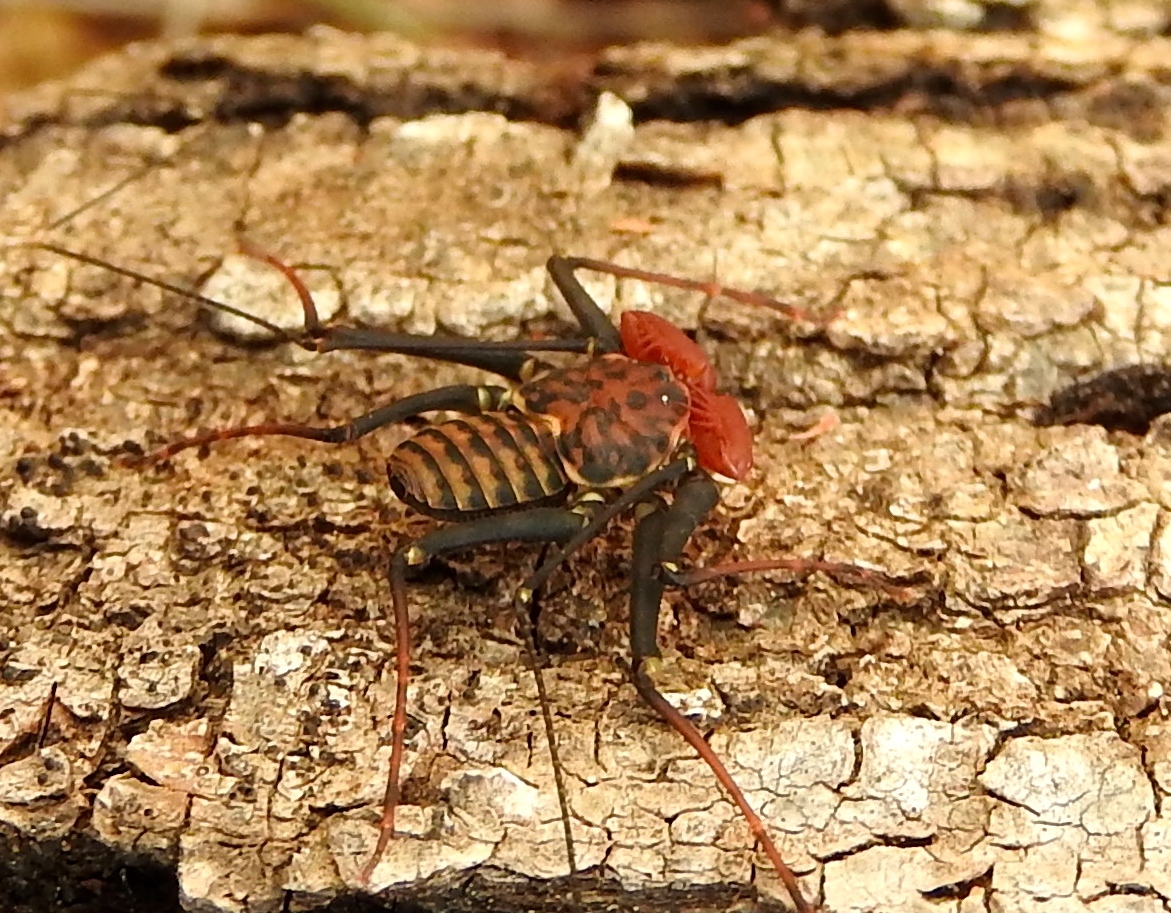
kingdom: Animalia
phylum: Arthropoda
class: Arachnida
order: Amblypygi
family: Phrynidae
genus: Phrynus
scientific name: Phrynus operculatus
